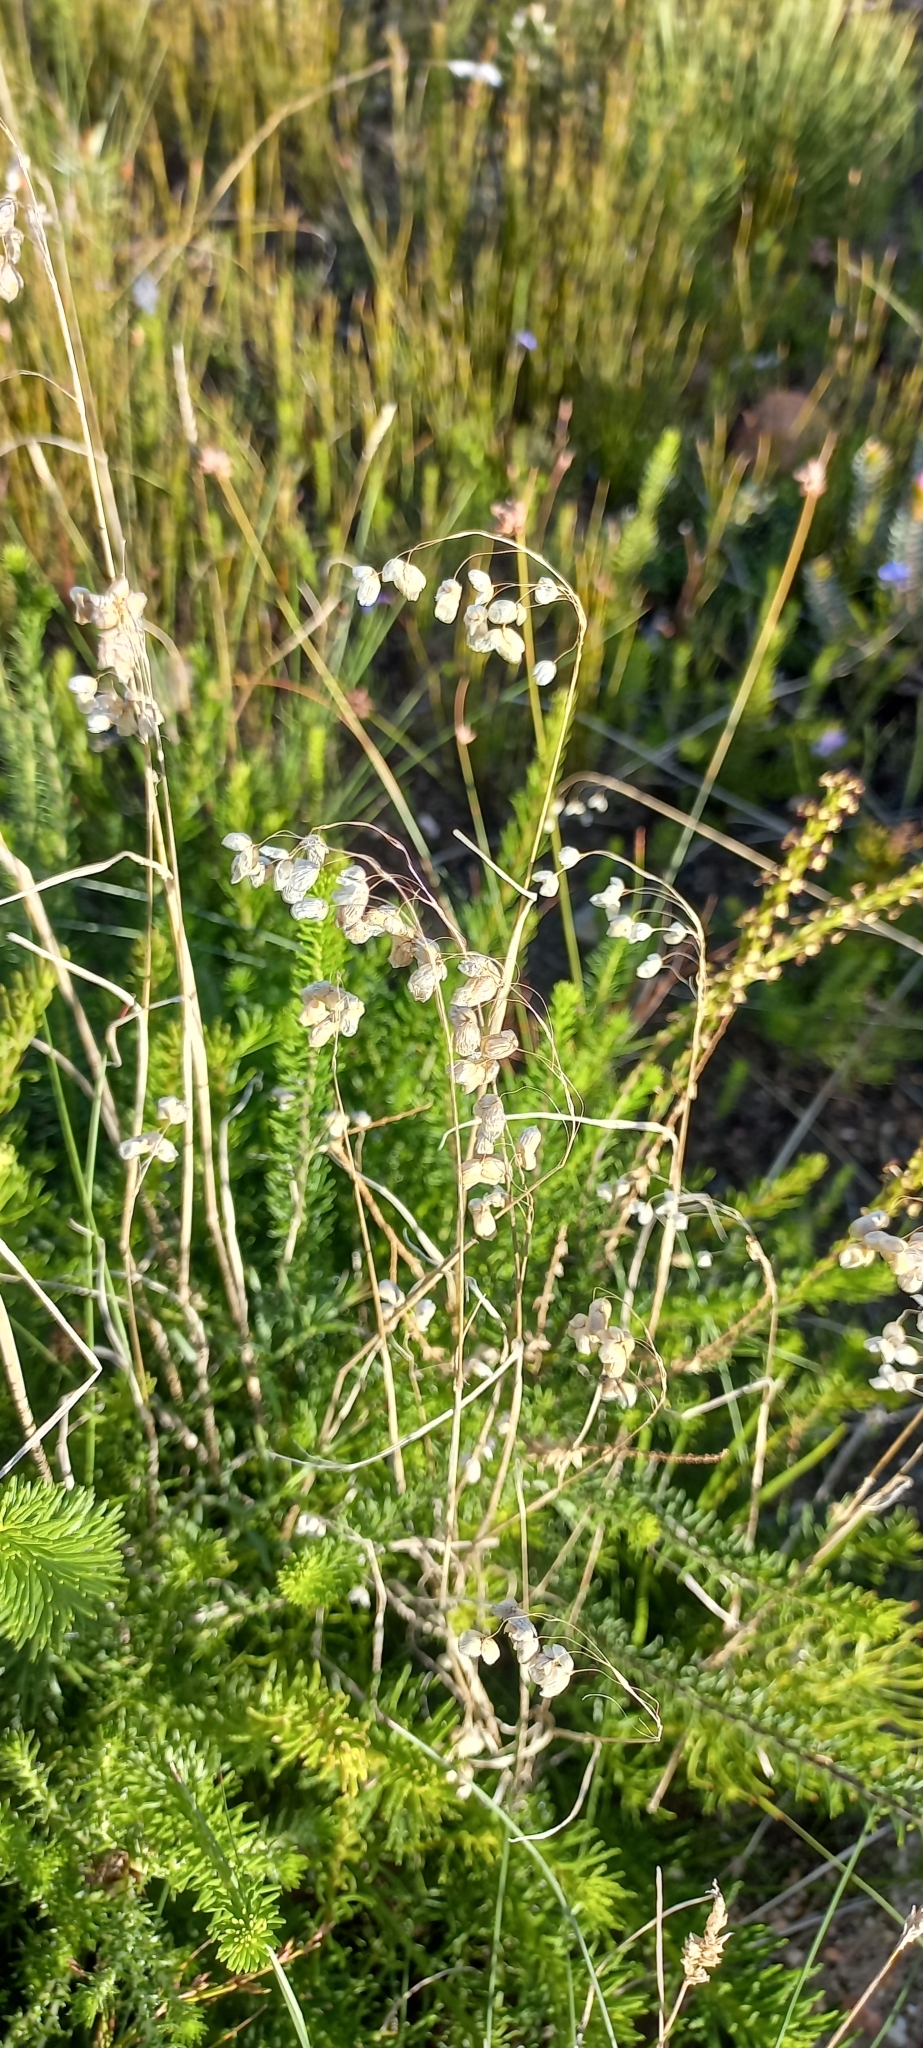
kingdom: Plantae
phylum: Tracheophyta
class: Liliopsida
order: Poales
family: Poaceae
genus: Briza
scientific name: Briza maxima
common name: Big quakinggrass
